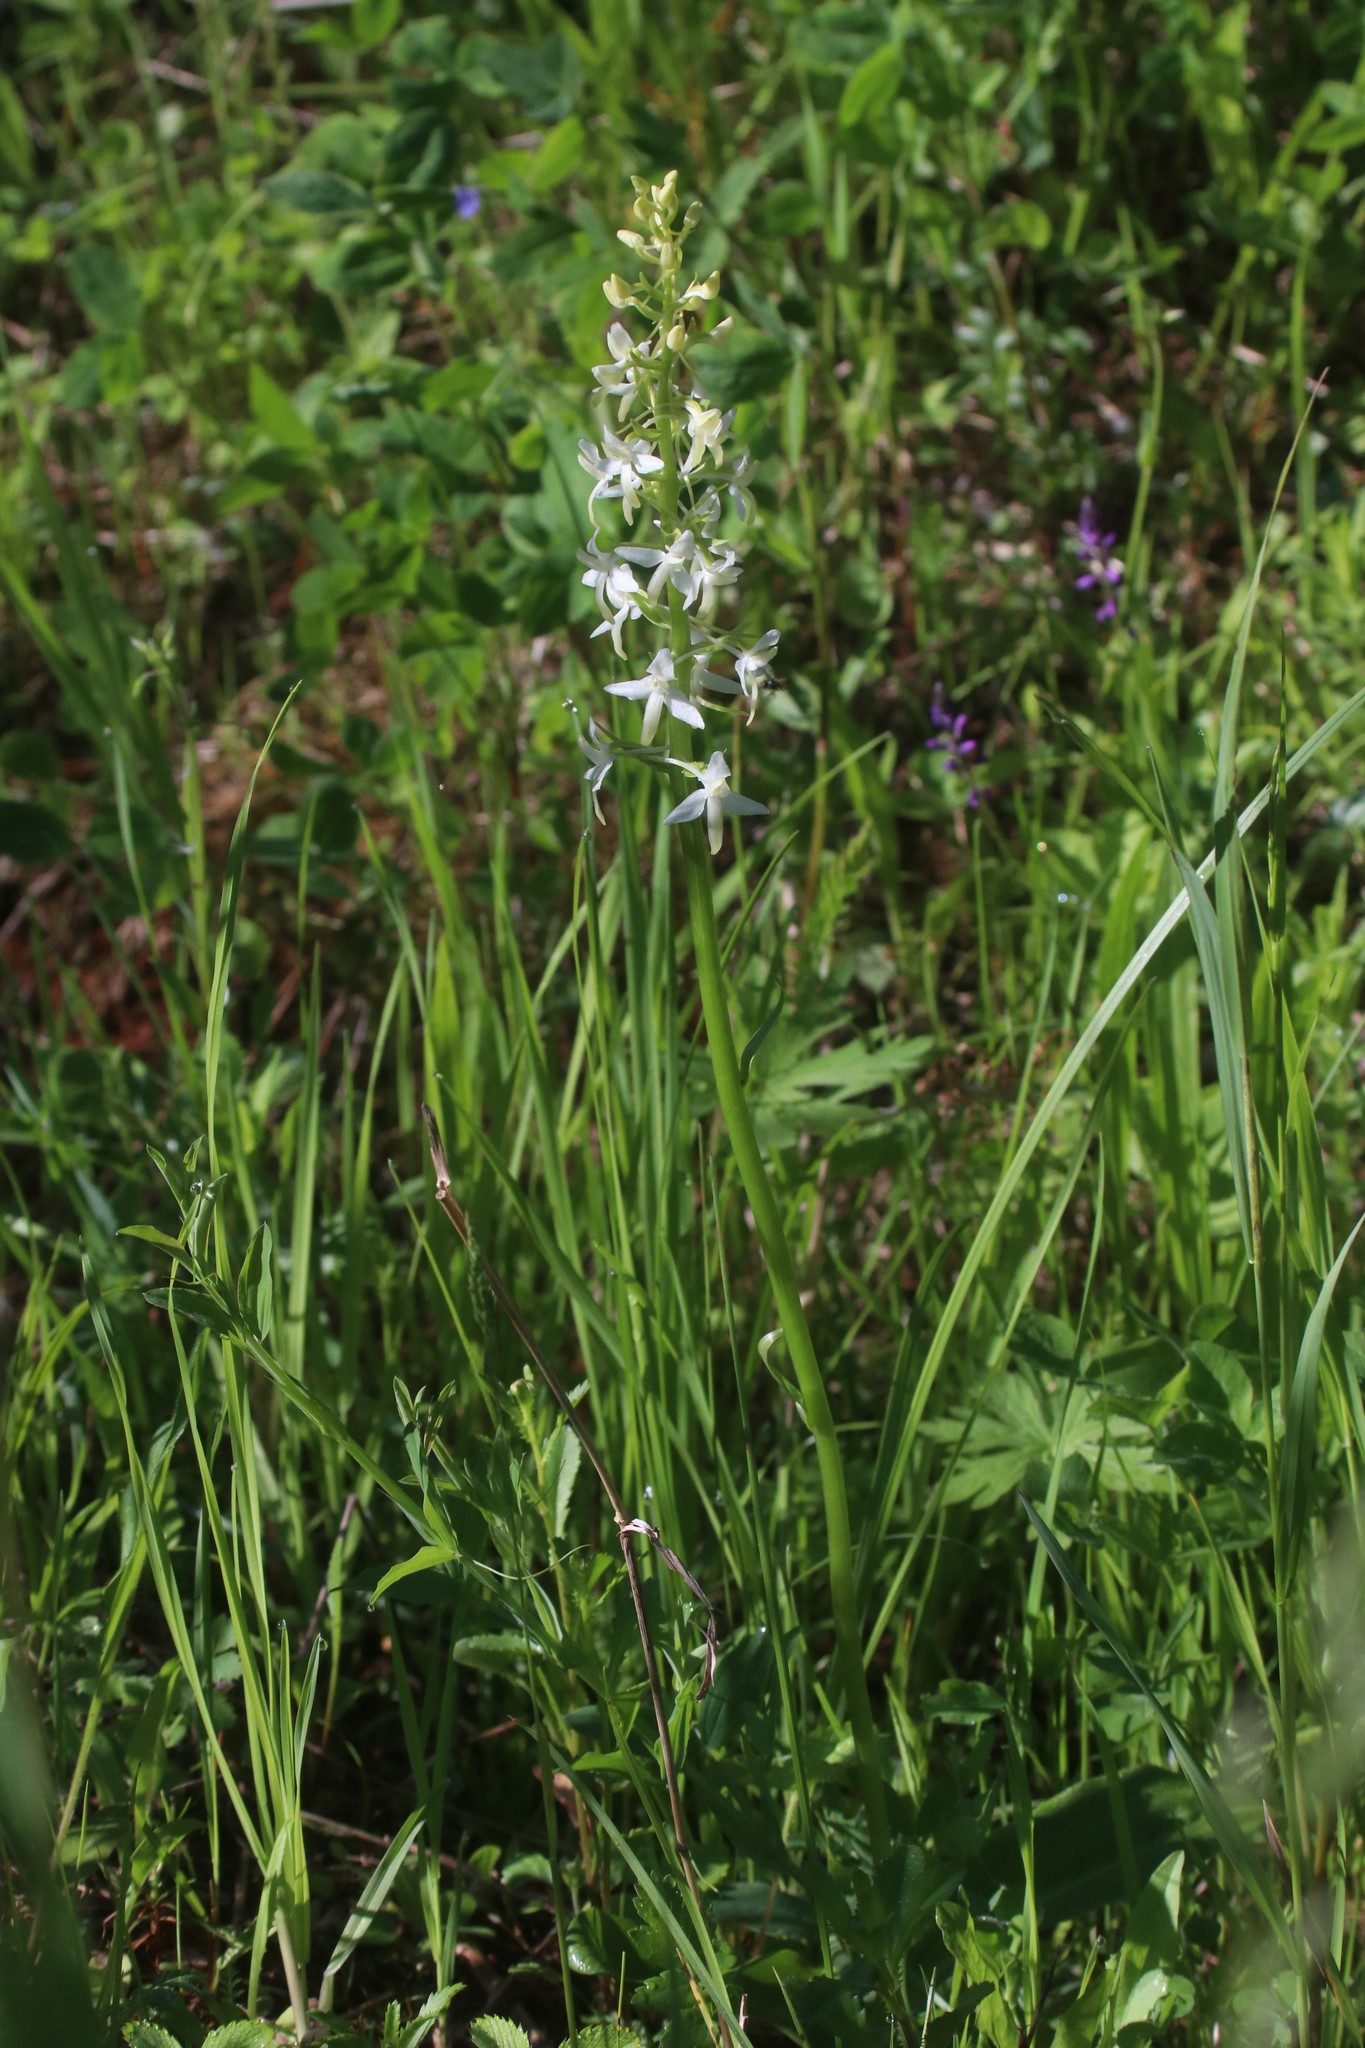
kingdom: Plantae
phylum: Tracheophyta
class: Liliopsida
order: Asparagales
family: Orchidaceae
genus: Platanthera
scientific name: Platanthera bifolia
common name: Lesser butterfly-orchid
